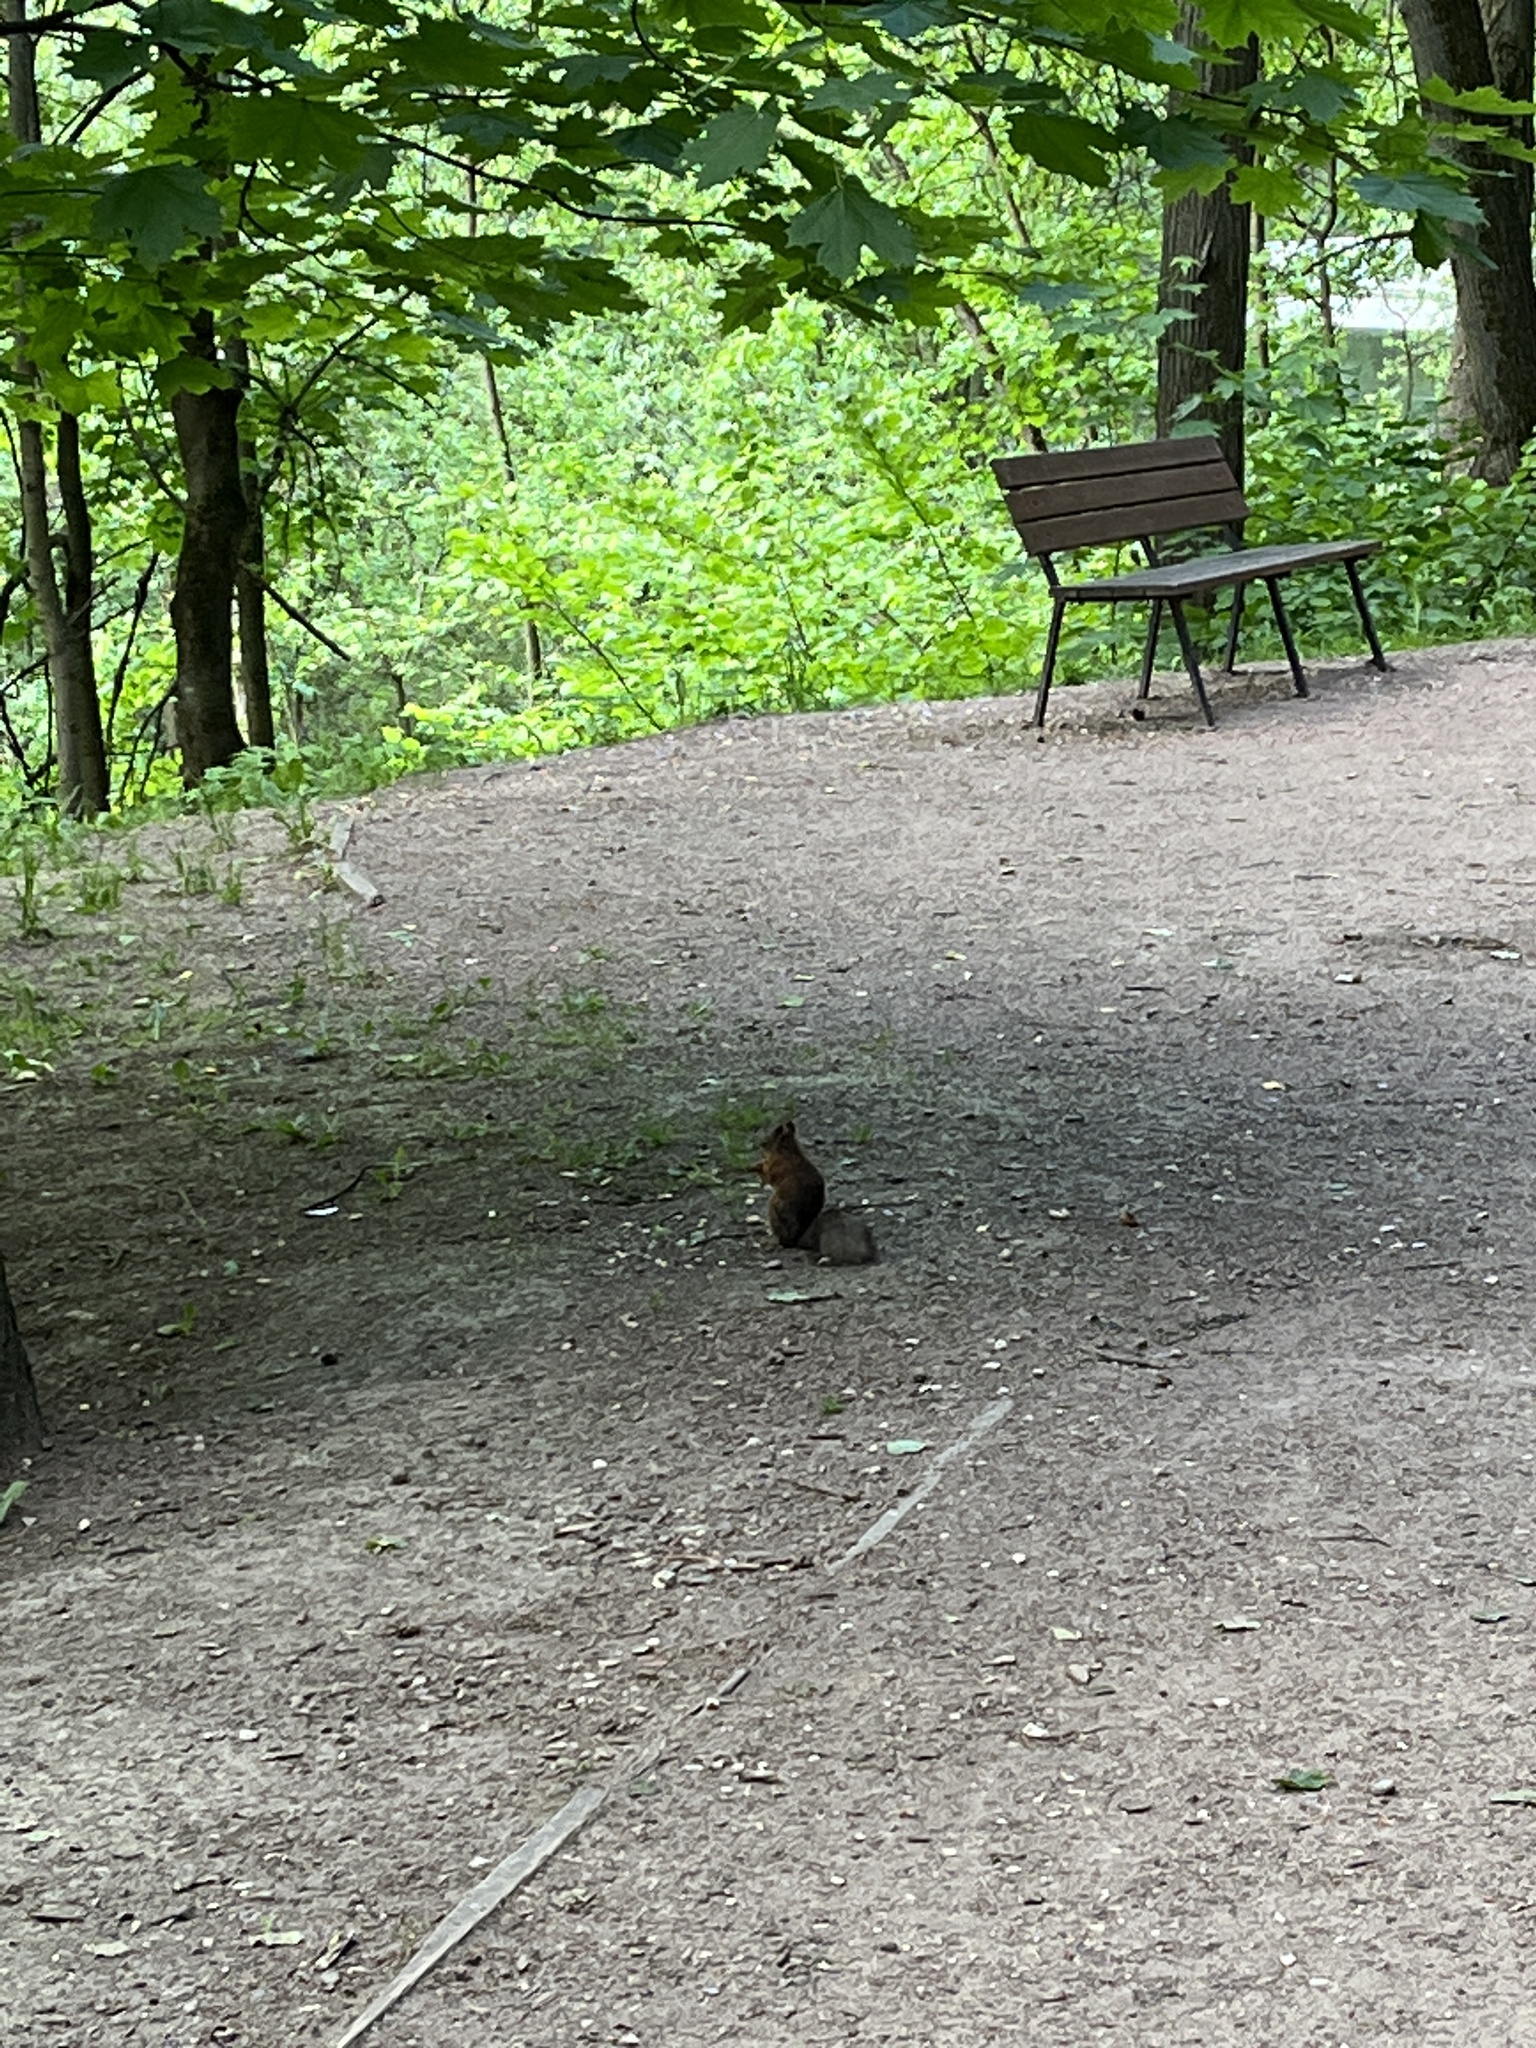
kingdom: Animalia
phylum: Chordata
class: Mammalia
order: Rodentia
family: Sciuridae
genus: Sciurus
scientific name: Sciurus vulgaris
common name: Eurasian red squirrel
